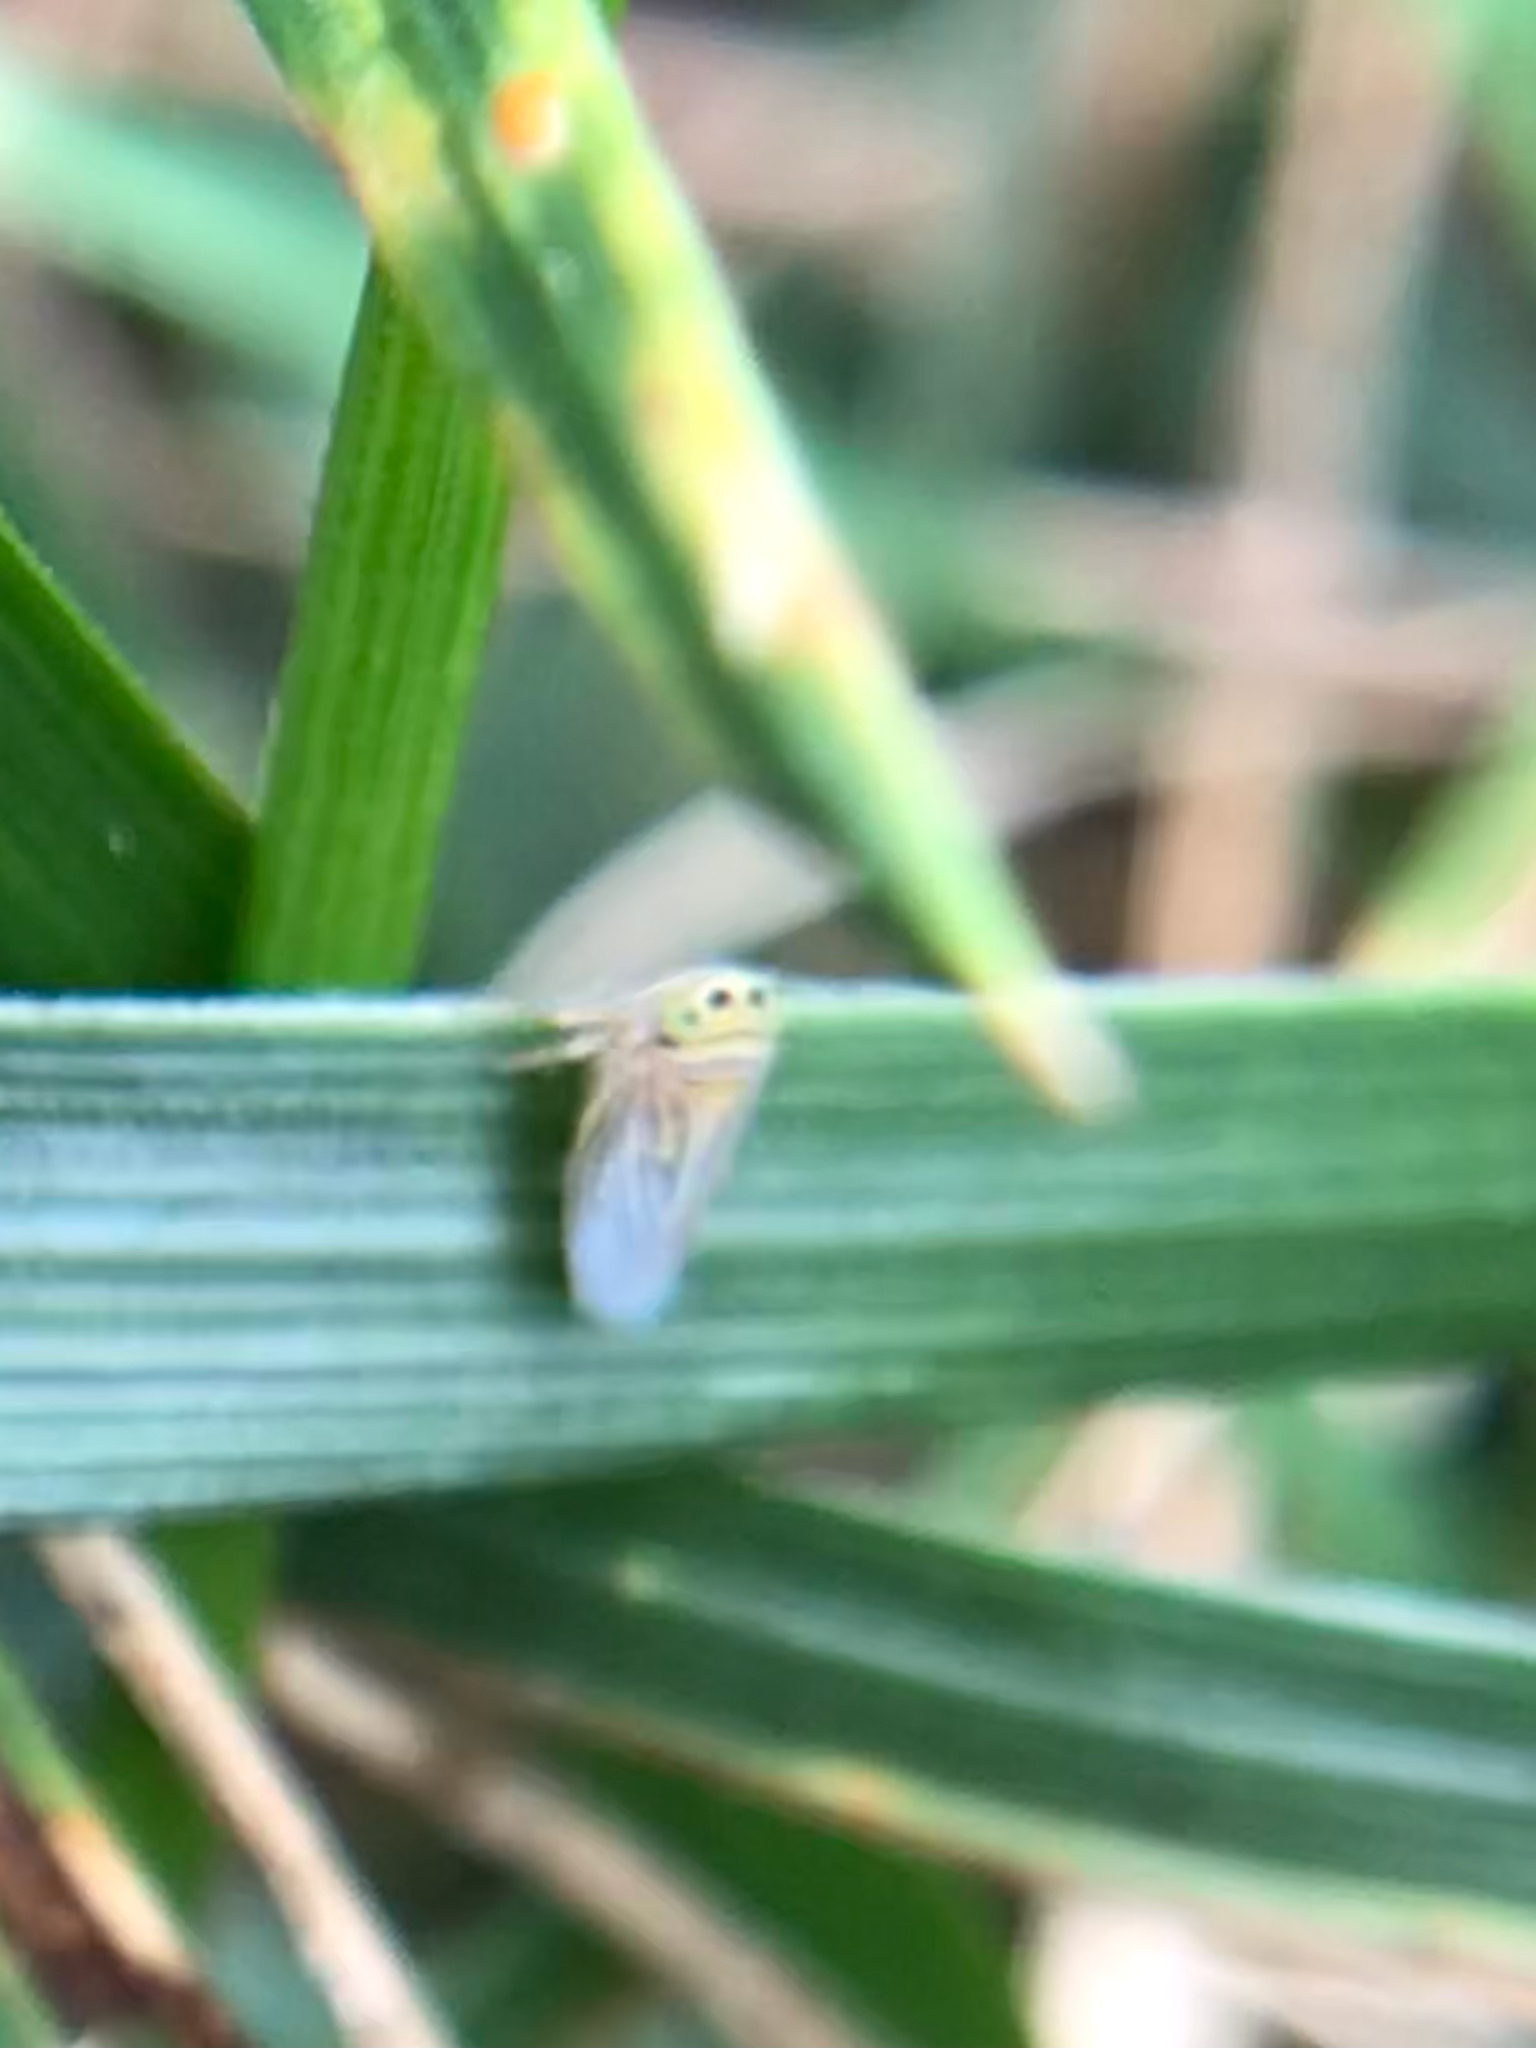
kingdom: Animalia
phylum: Arthropoda
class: Insecta
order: Hemiptera
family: Cicadellidae
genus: Graminella
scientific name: Graminella villicus
